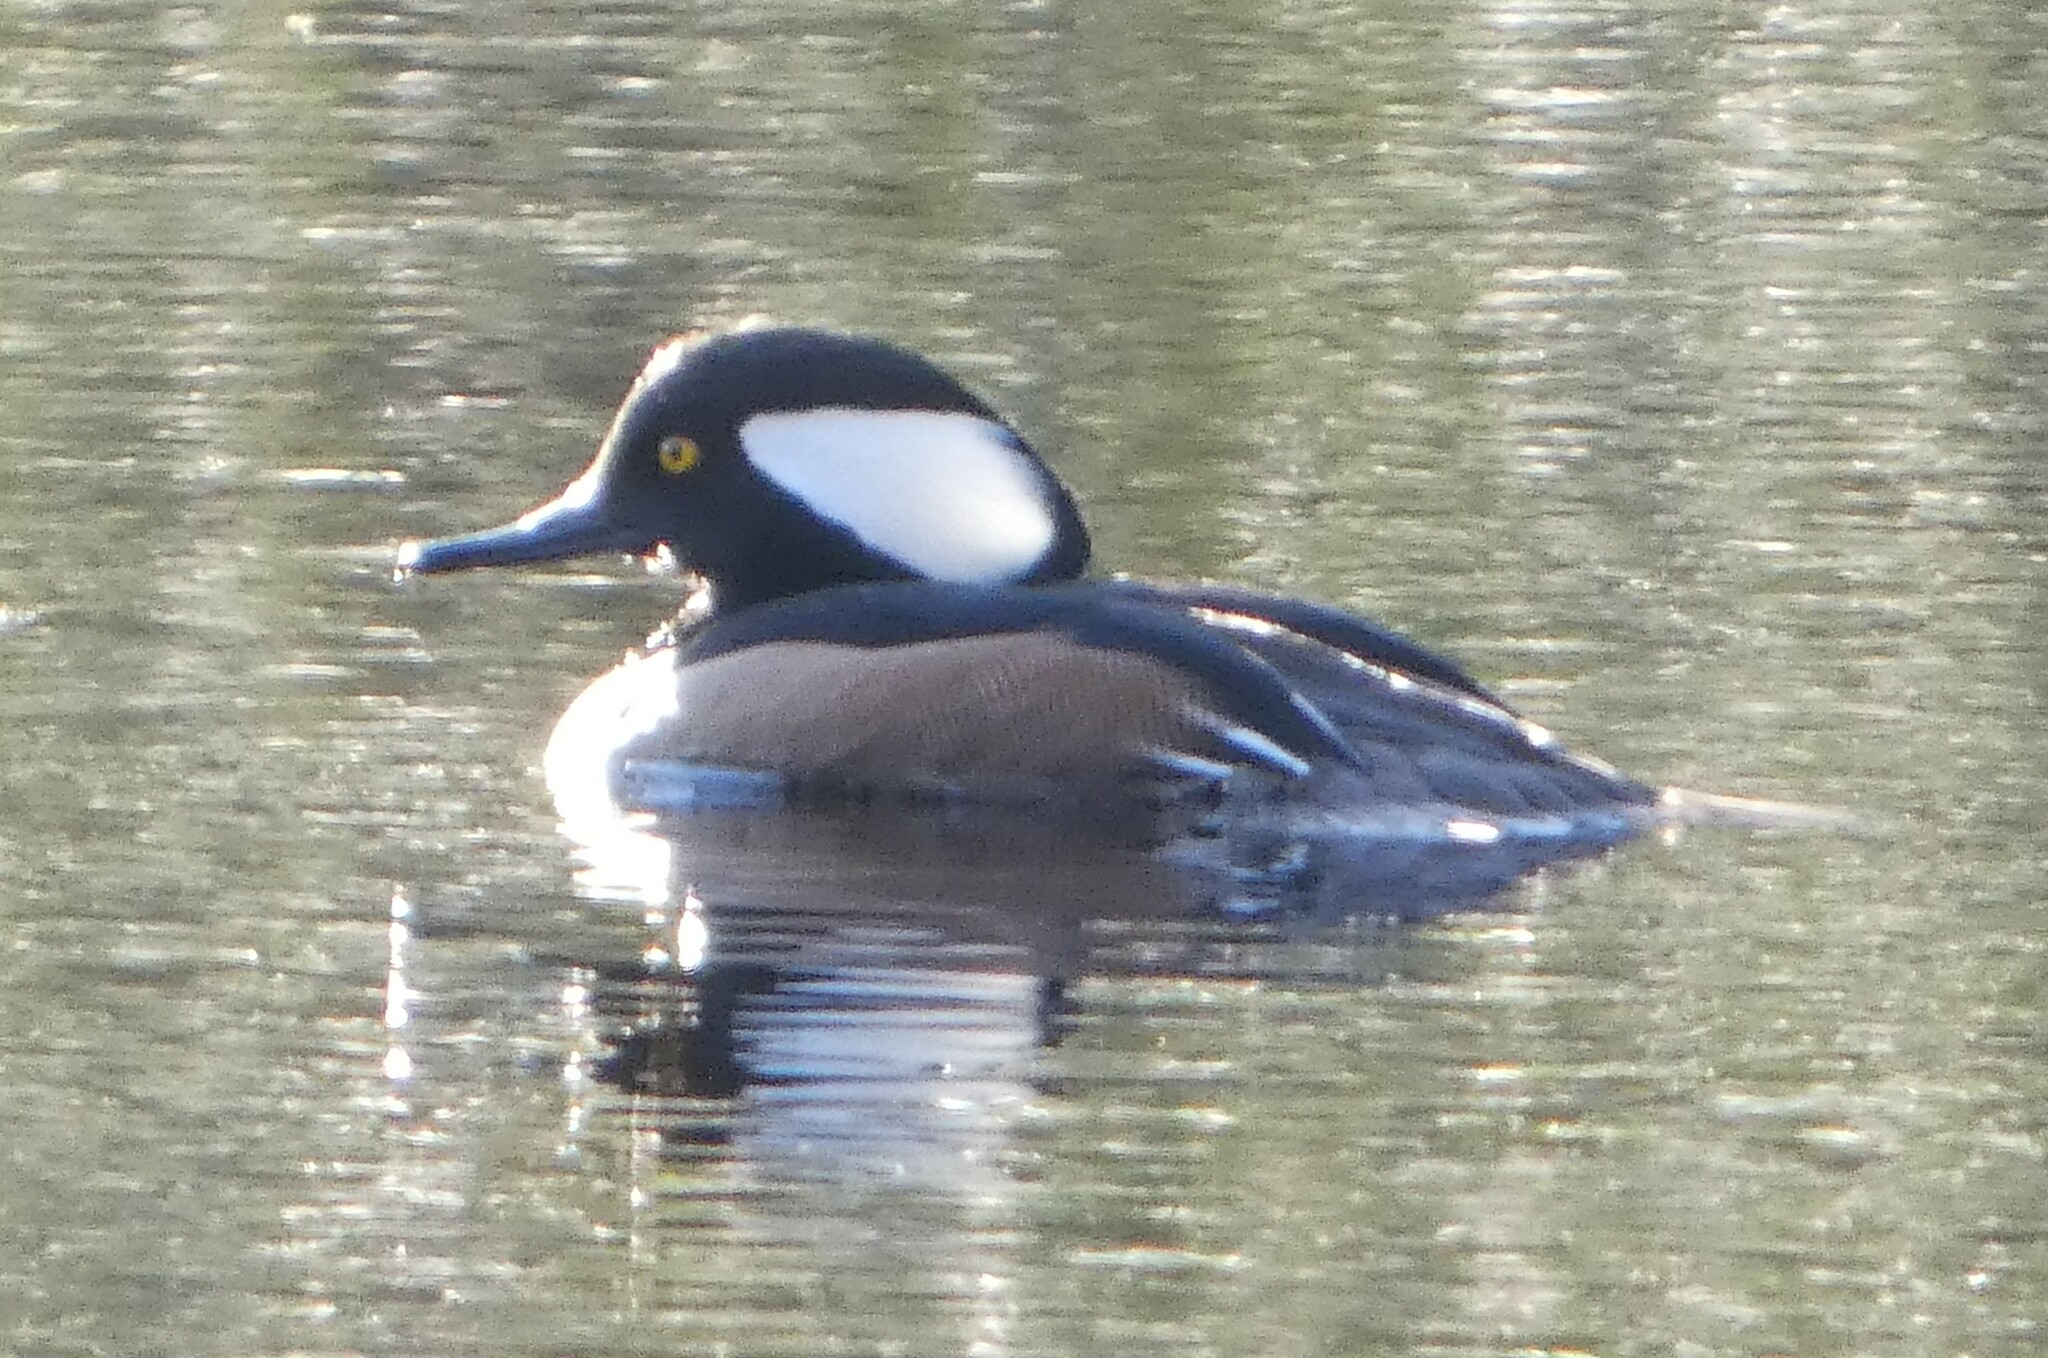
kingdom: Animalia
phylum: Chordata
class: Aves
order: Anseriformes
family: Anatidae
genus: Lophodytes
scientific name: Lophodytes cucullatus
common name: Hooded merganser
